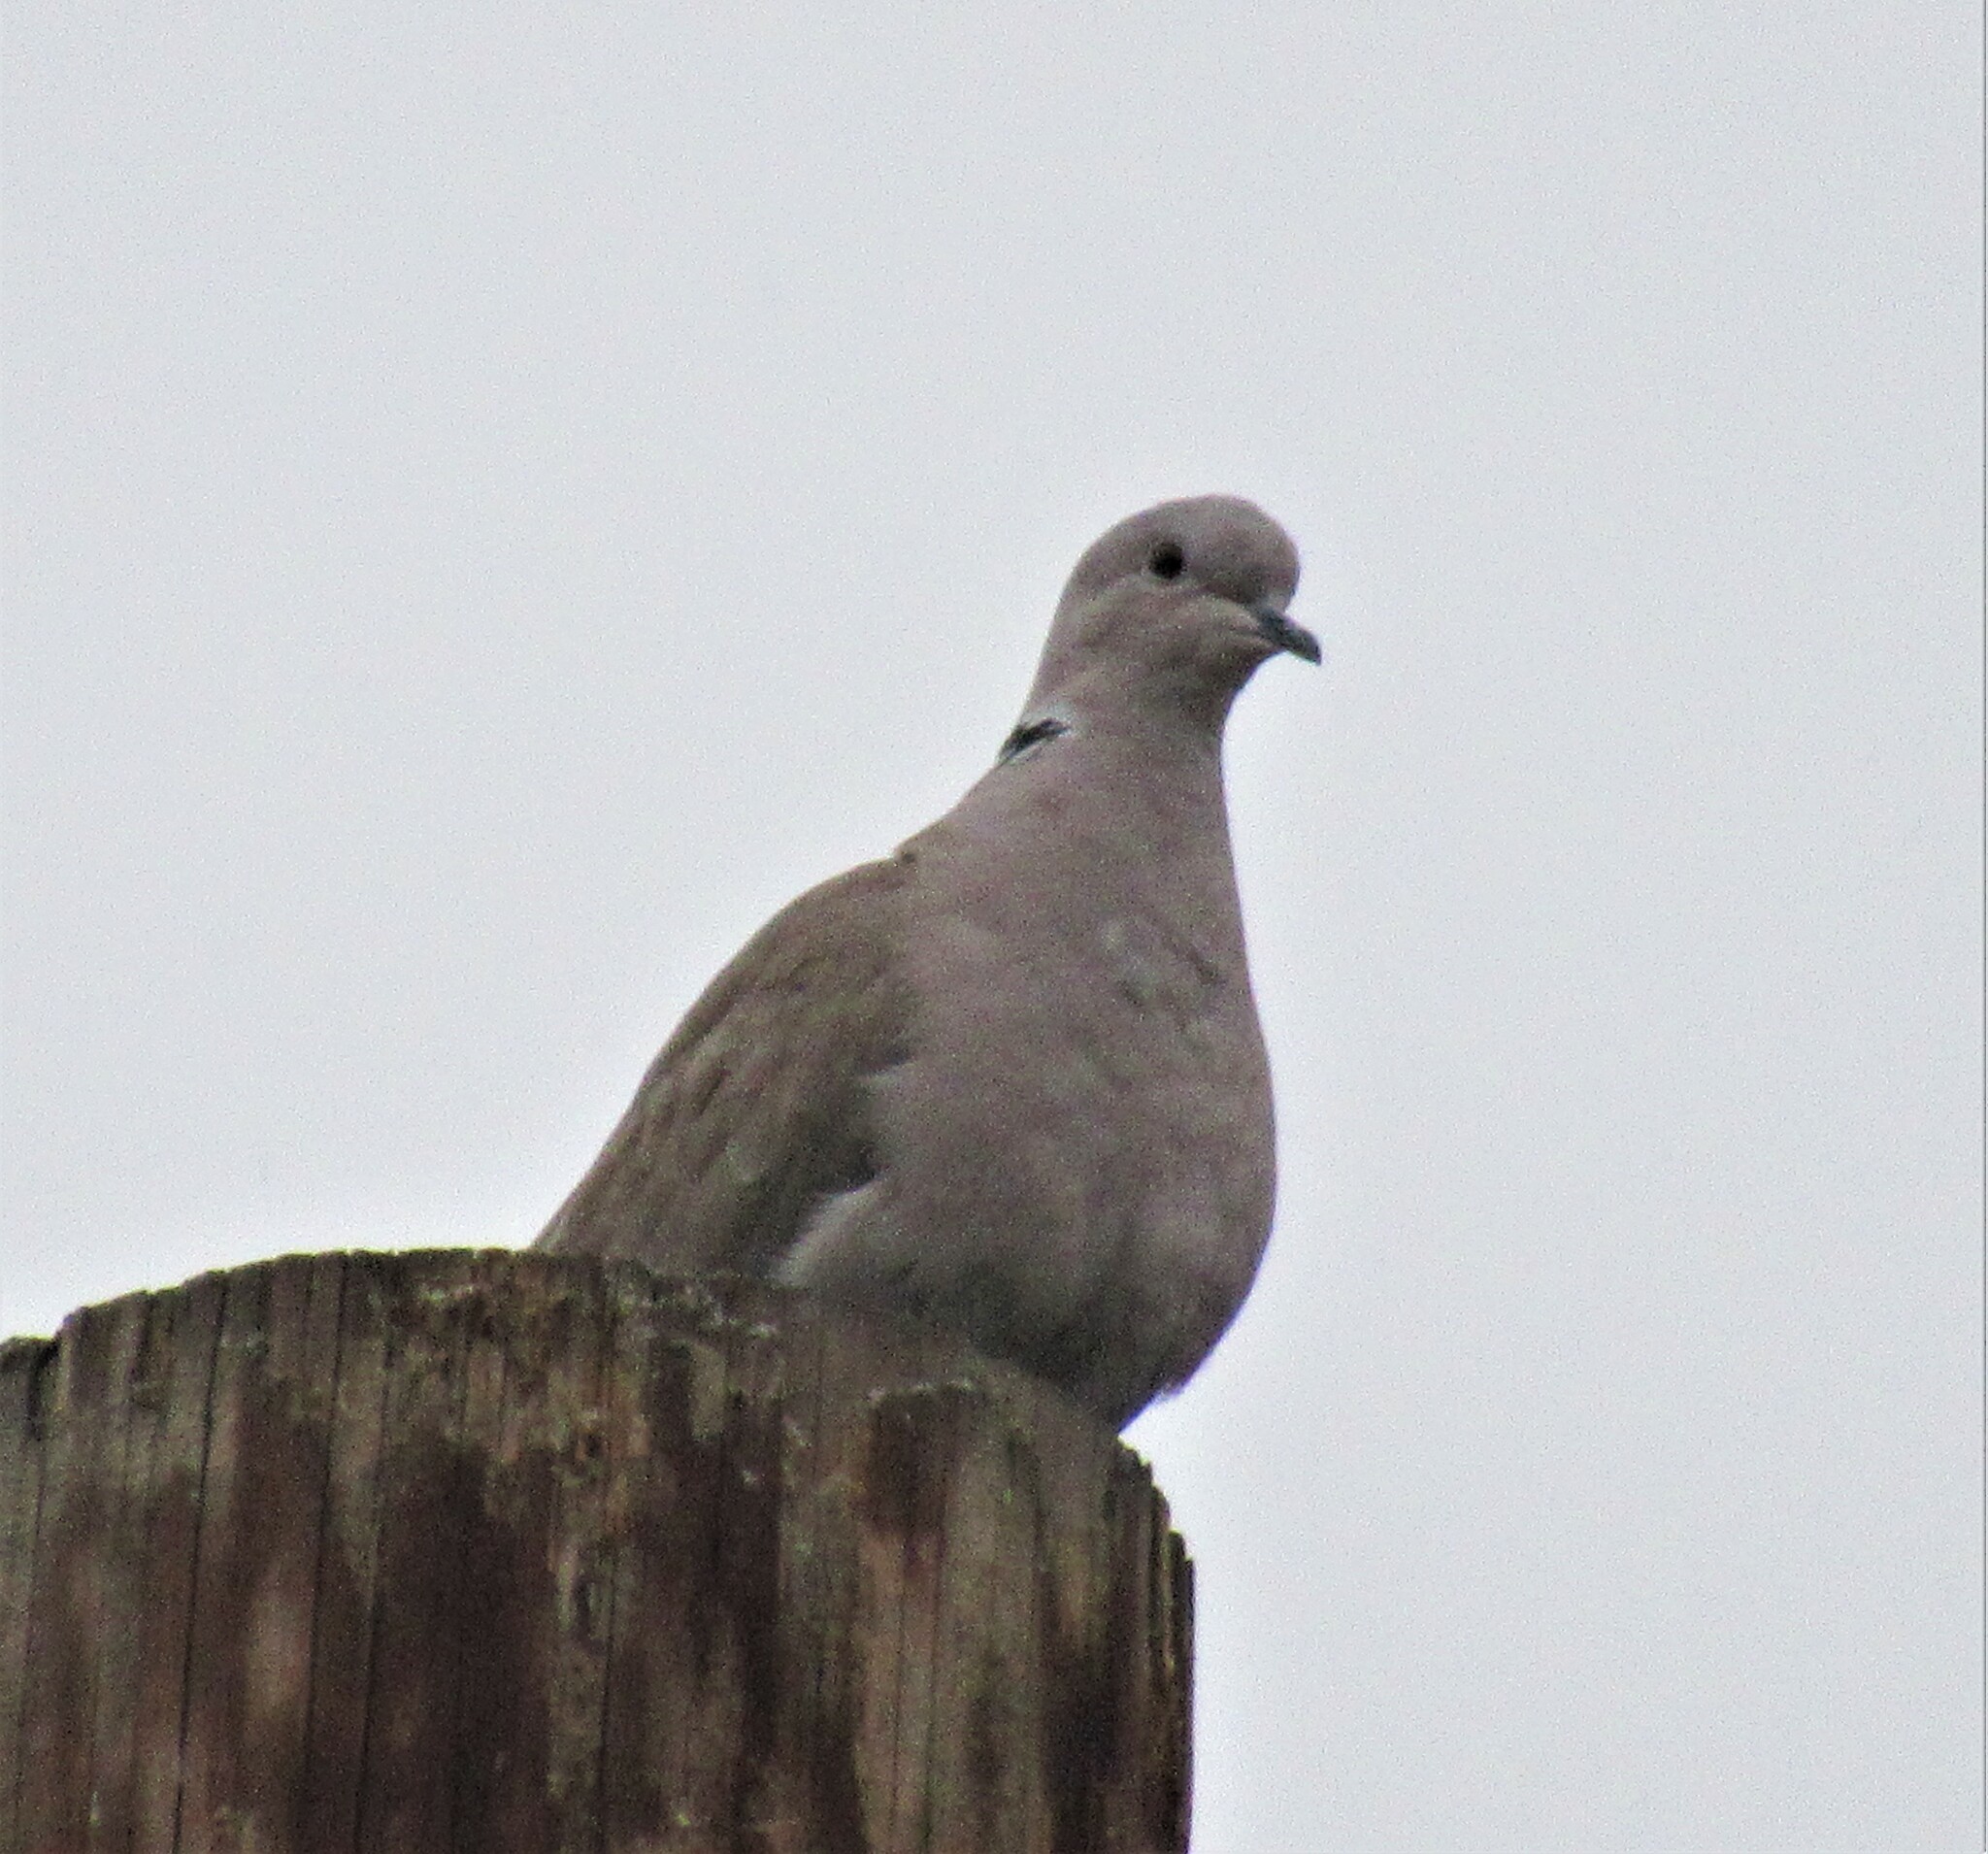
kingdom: Animalia
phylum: Chordata
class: Aves
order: Columbiformes
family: Columbidae
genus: Streptopelia
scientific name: Streptopelia decaocto
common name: Eurasian collared dove
